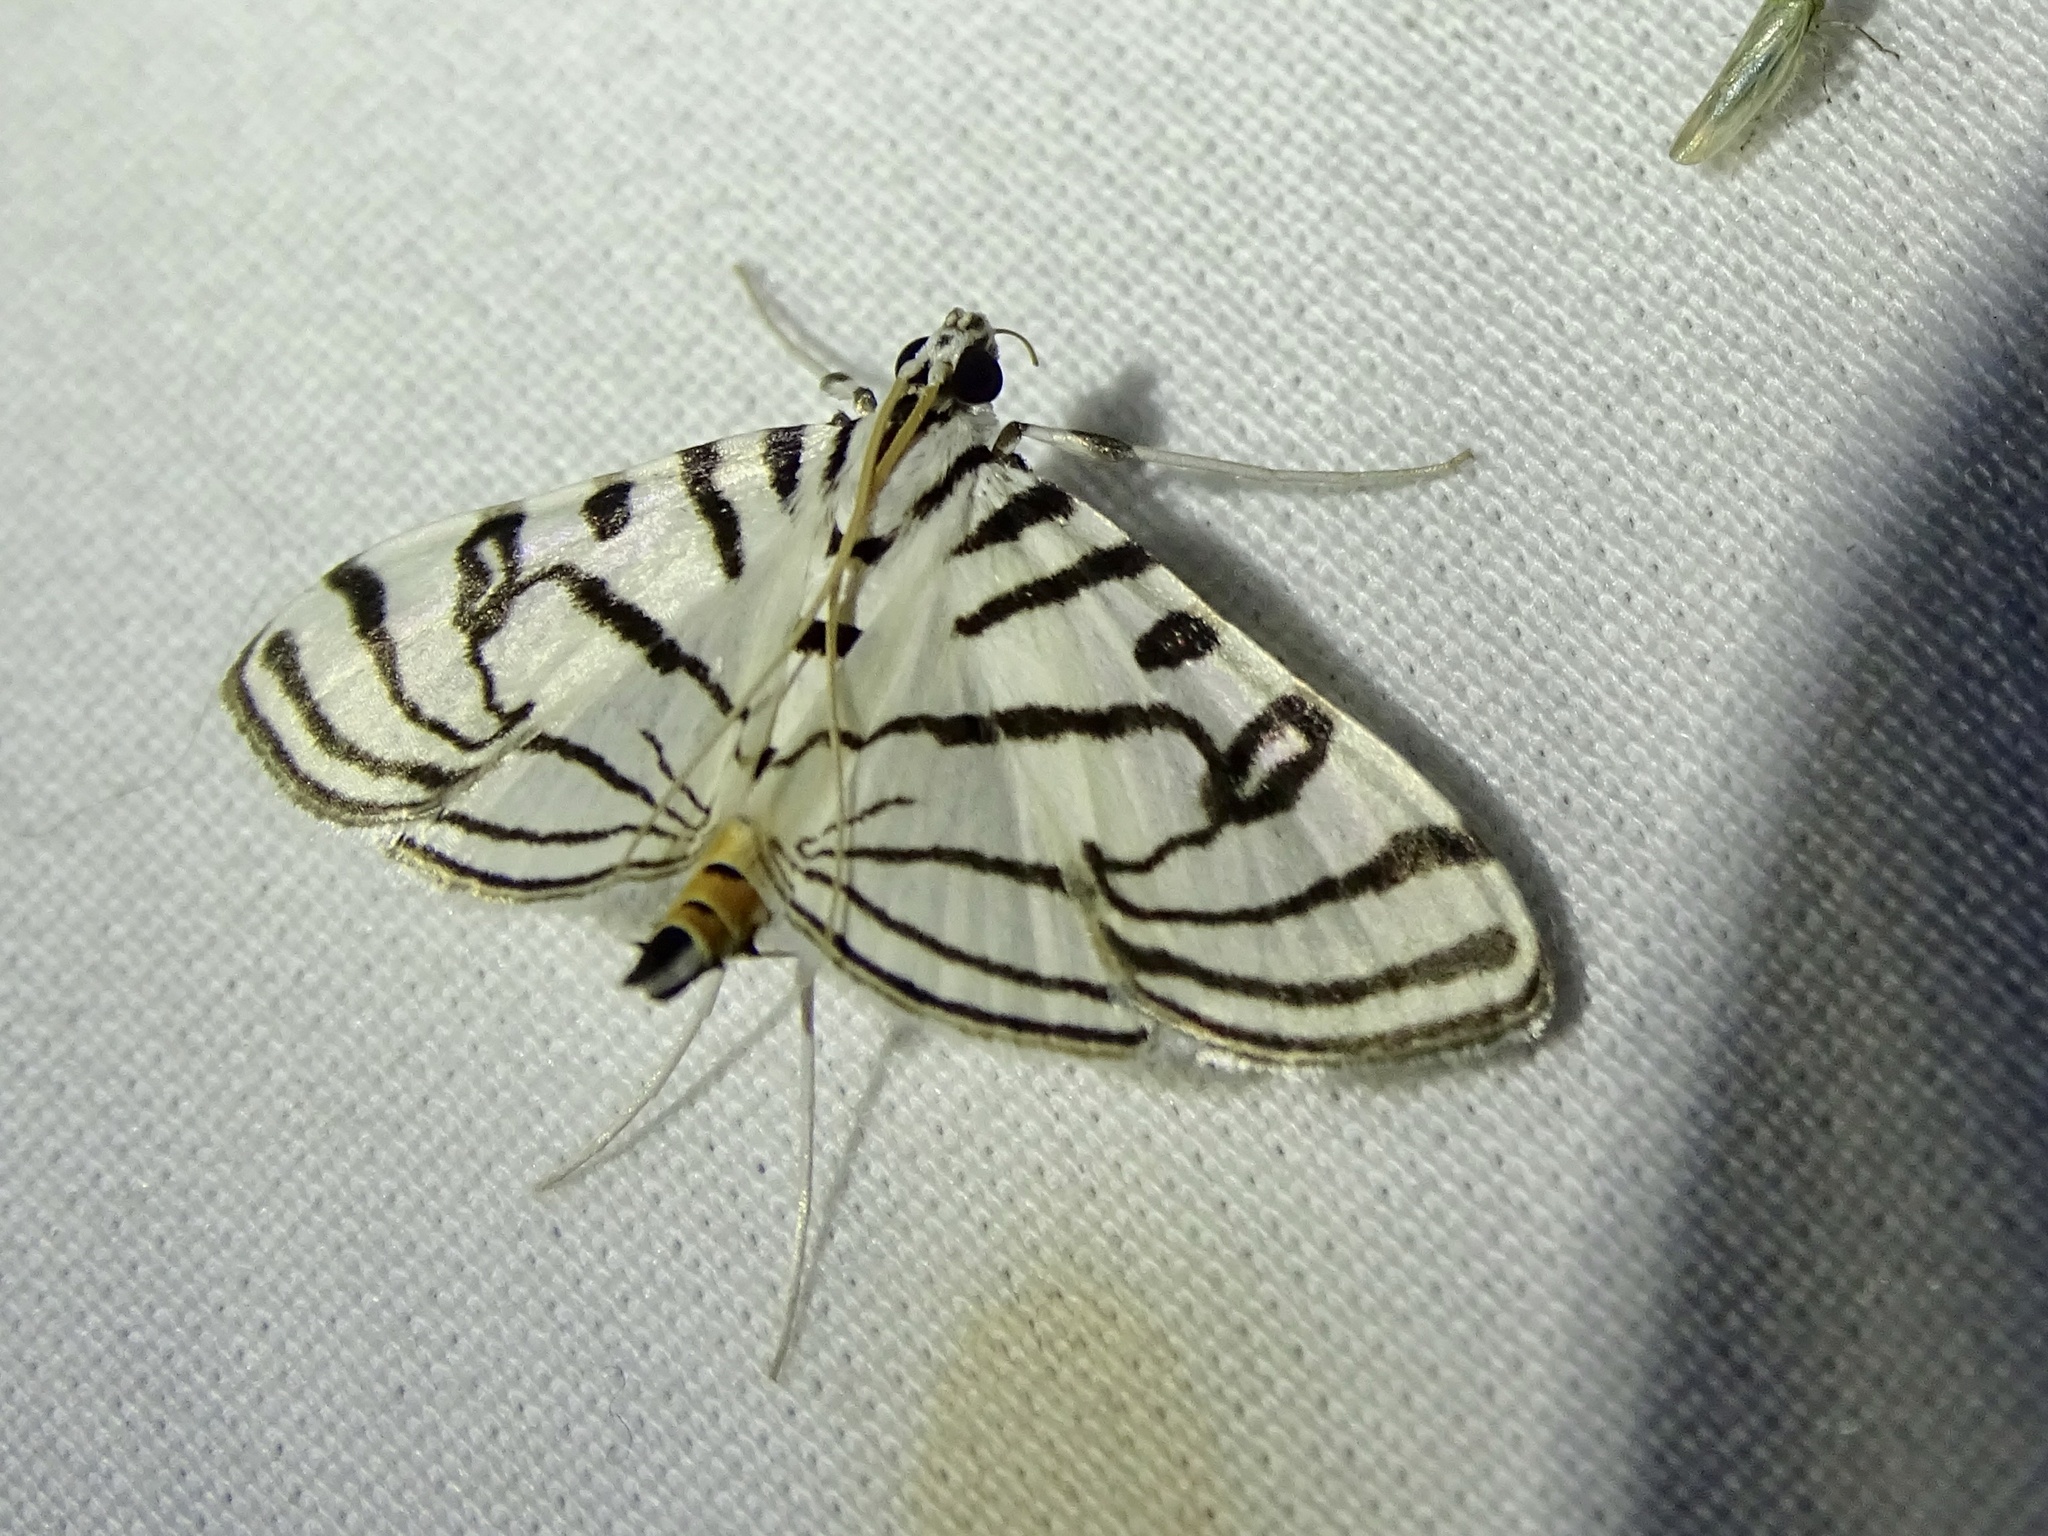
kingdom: Animalia
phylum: Arthropoda
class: Insecta
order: Lepidoptera
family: Crambidae
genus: Conchylodes
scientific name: Conchylodes ovulalis
